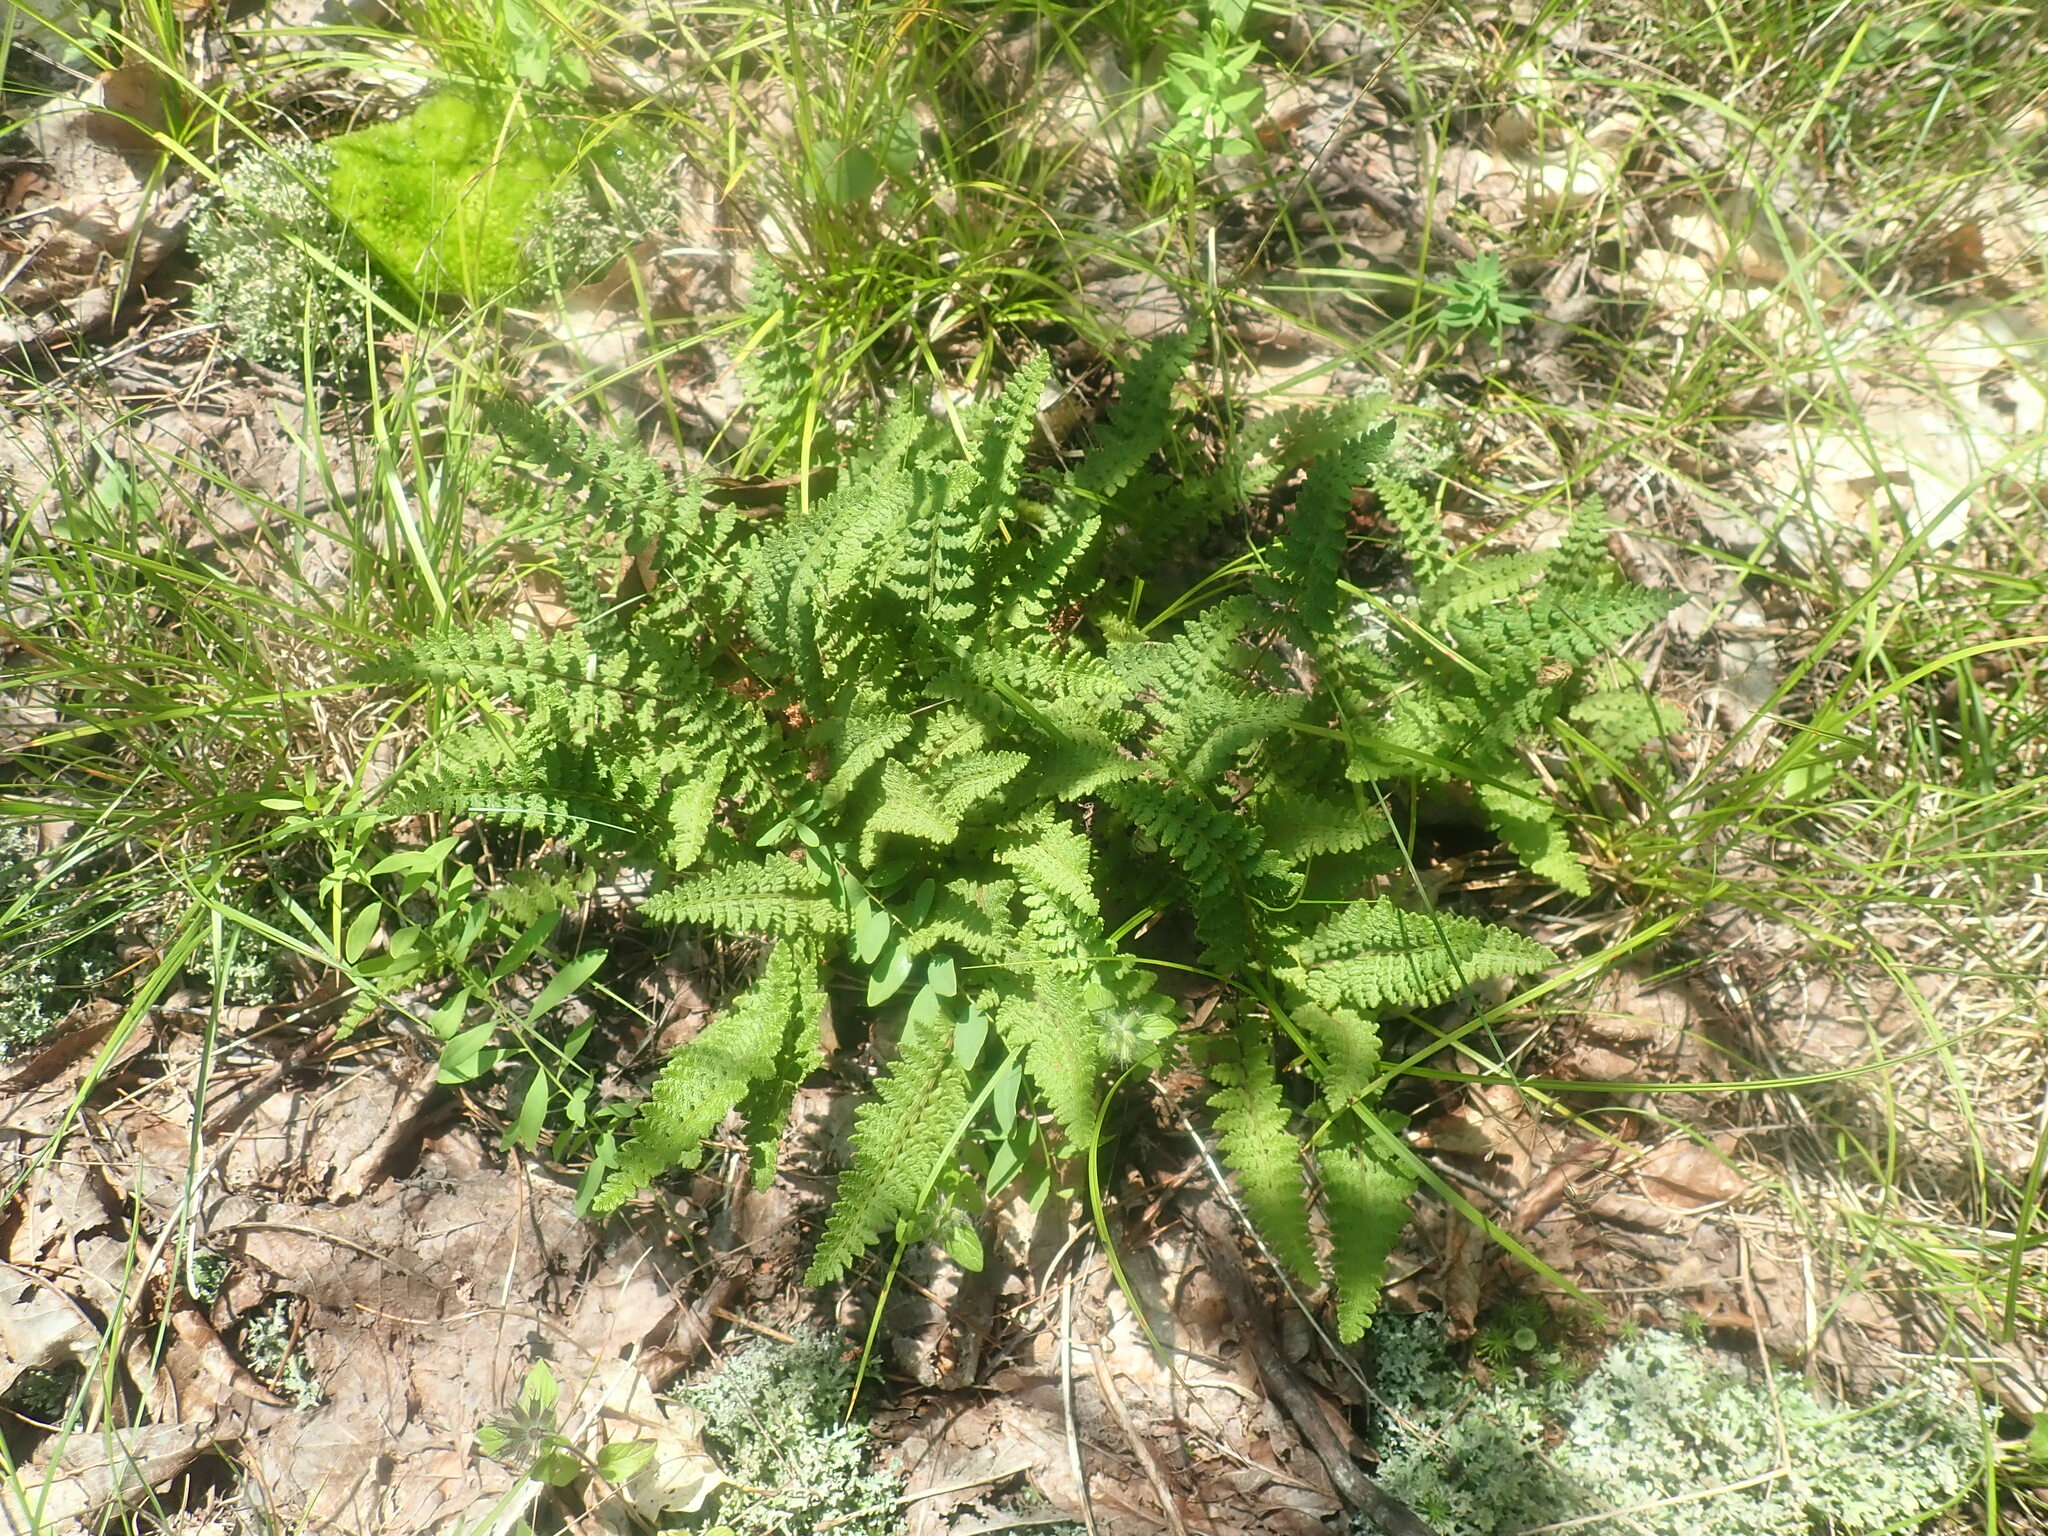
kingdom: Plantae
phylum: Tracheophyta
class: Polypodiopsida
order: Polypodiales
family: Woodsiaceae
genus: Woodsia
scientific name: Woodsia ilvensis
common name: Fragrant woodsia
